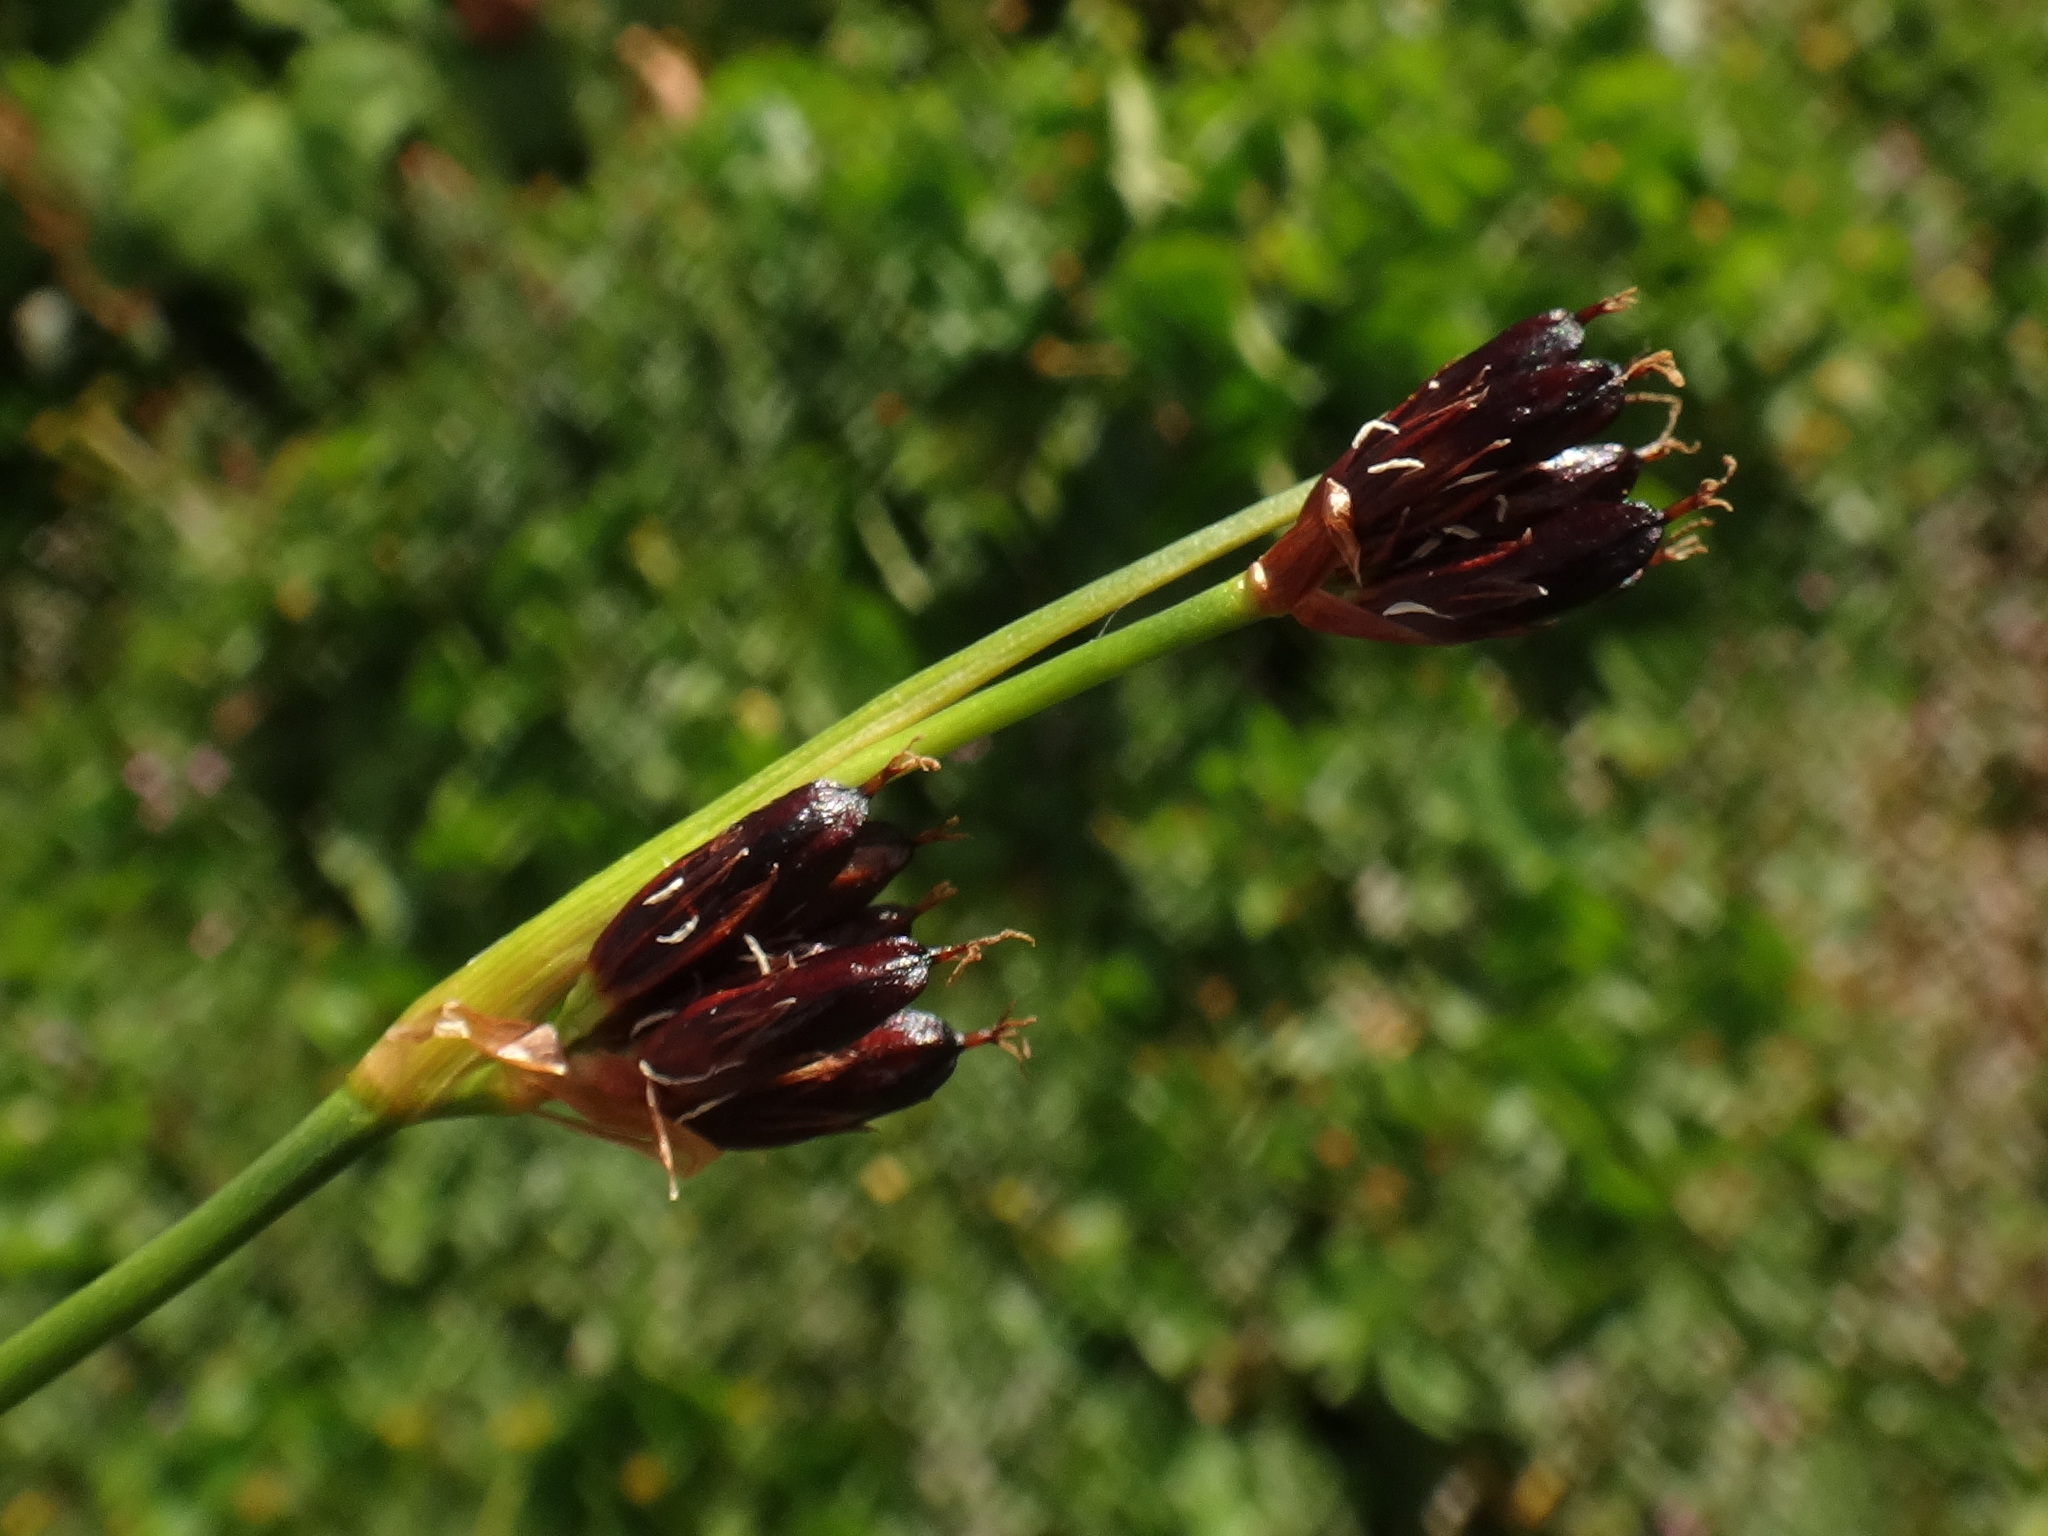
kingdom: Plantae
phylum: Tracheophyta
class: Liliopsida
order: Poales
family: Juncaceae
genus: Juncus
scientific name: Juncus castaneus
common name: Chestnut rush
